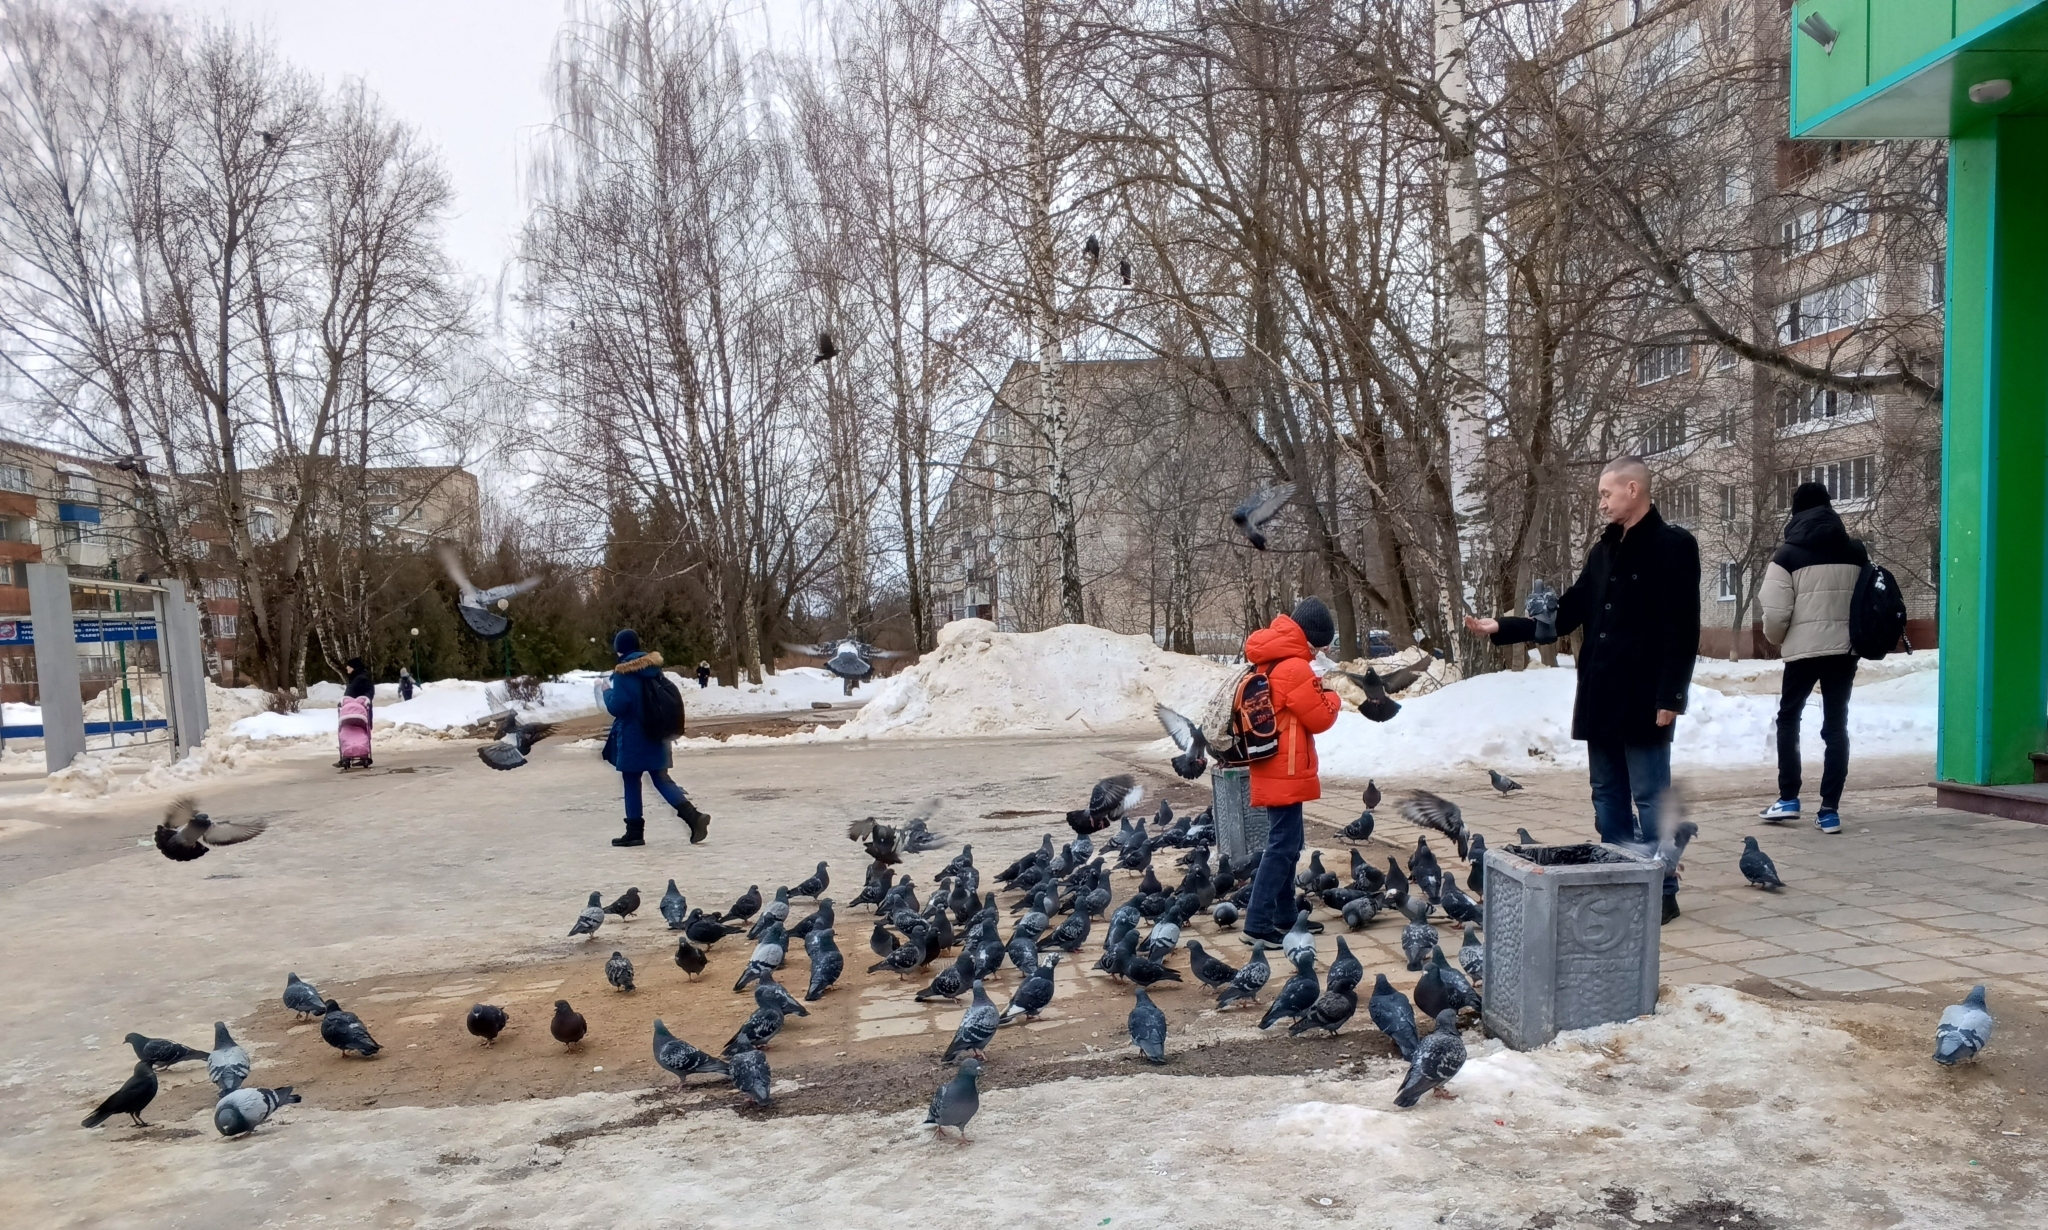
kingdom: Animalia
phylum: Chordata
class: Aves
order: Columbiformes
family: Columbidae
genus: Columba
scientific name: Columba livia
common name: Rock pigeon
